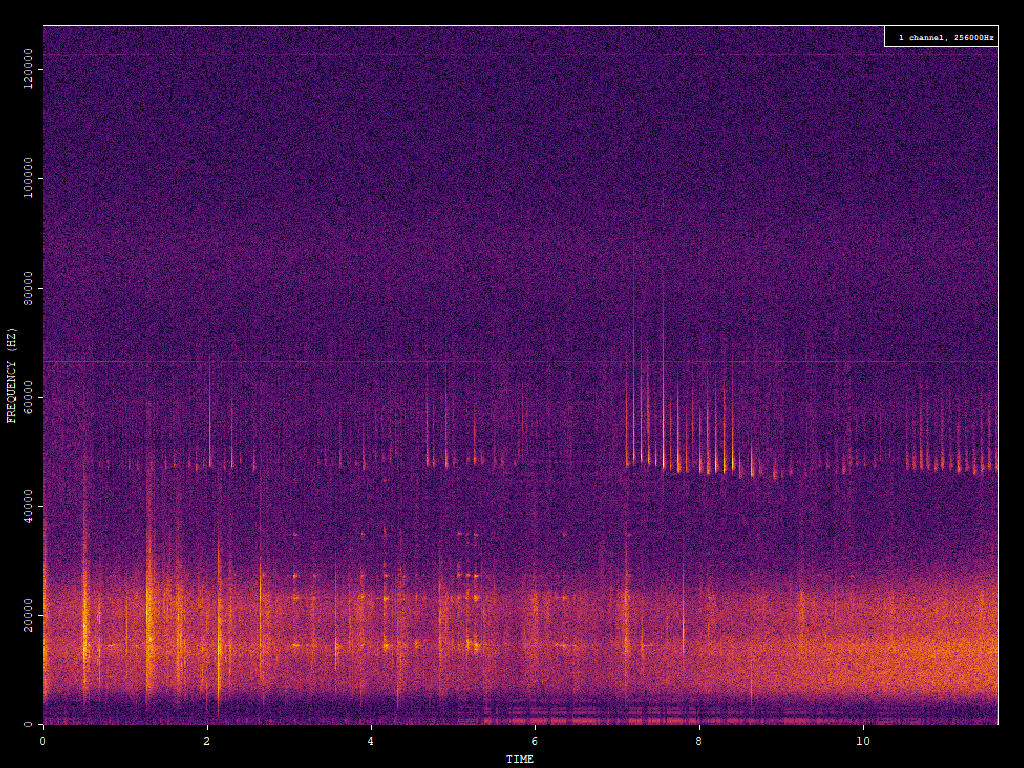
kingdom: Animalia
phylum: Chordata
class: Mammalia
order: Chiroptera
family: Vespertilionidae
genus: Pipistrellus
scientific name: Pipistrellus pipistrellus
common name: Common pipistrelle
